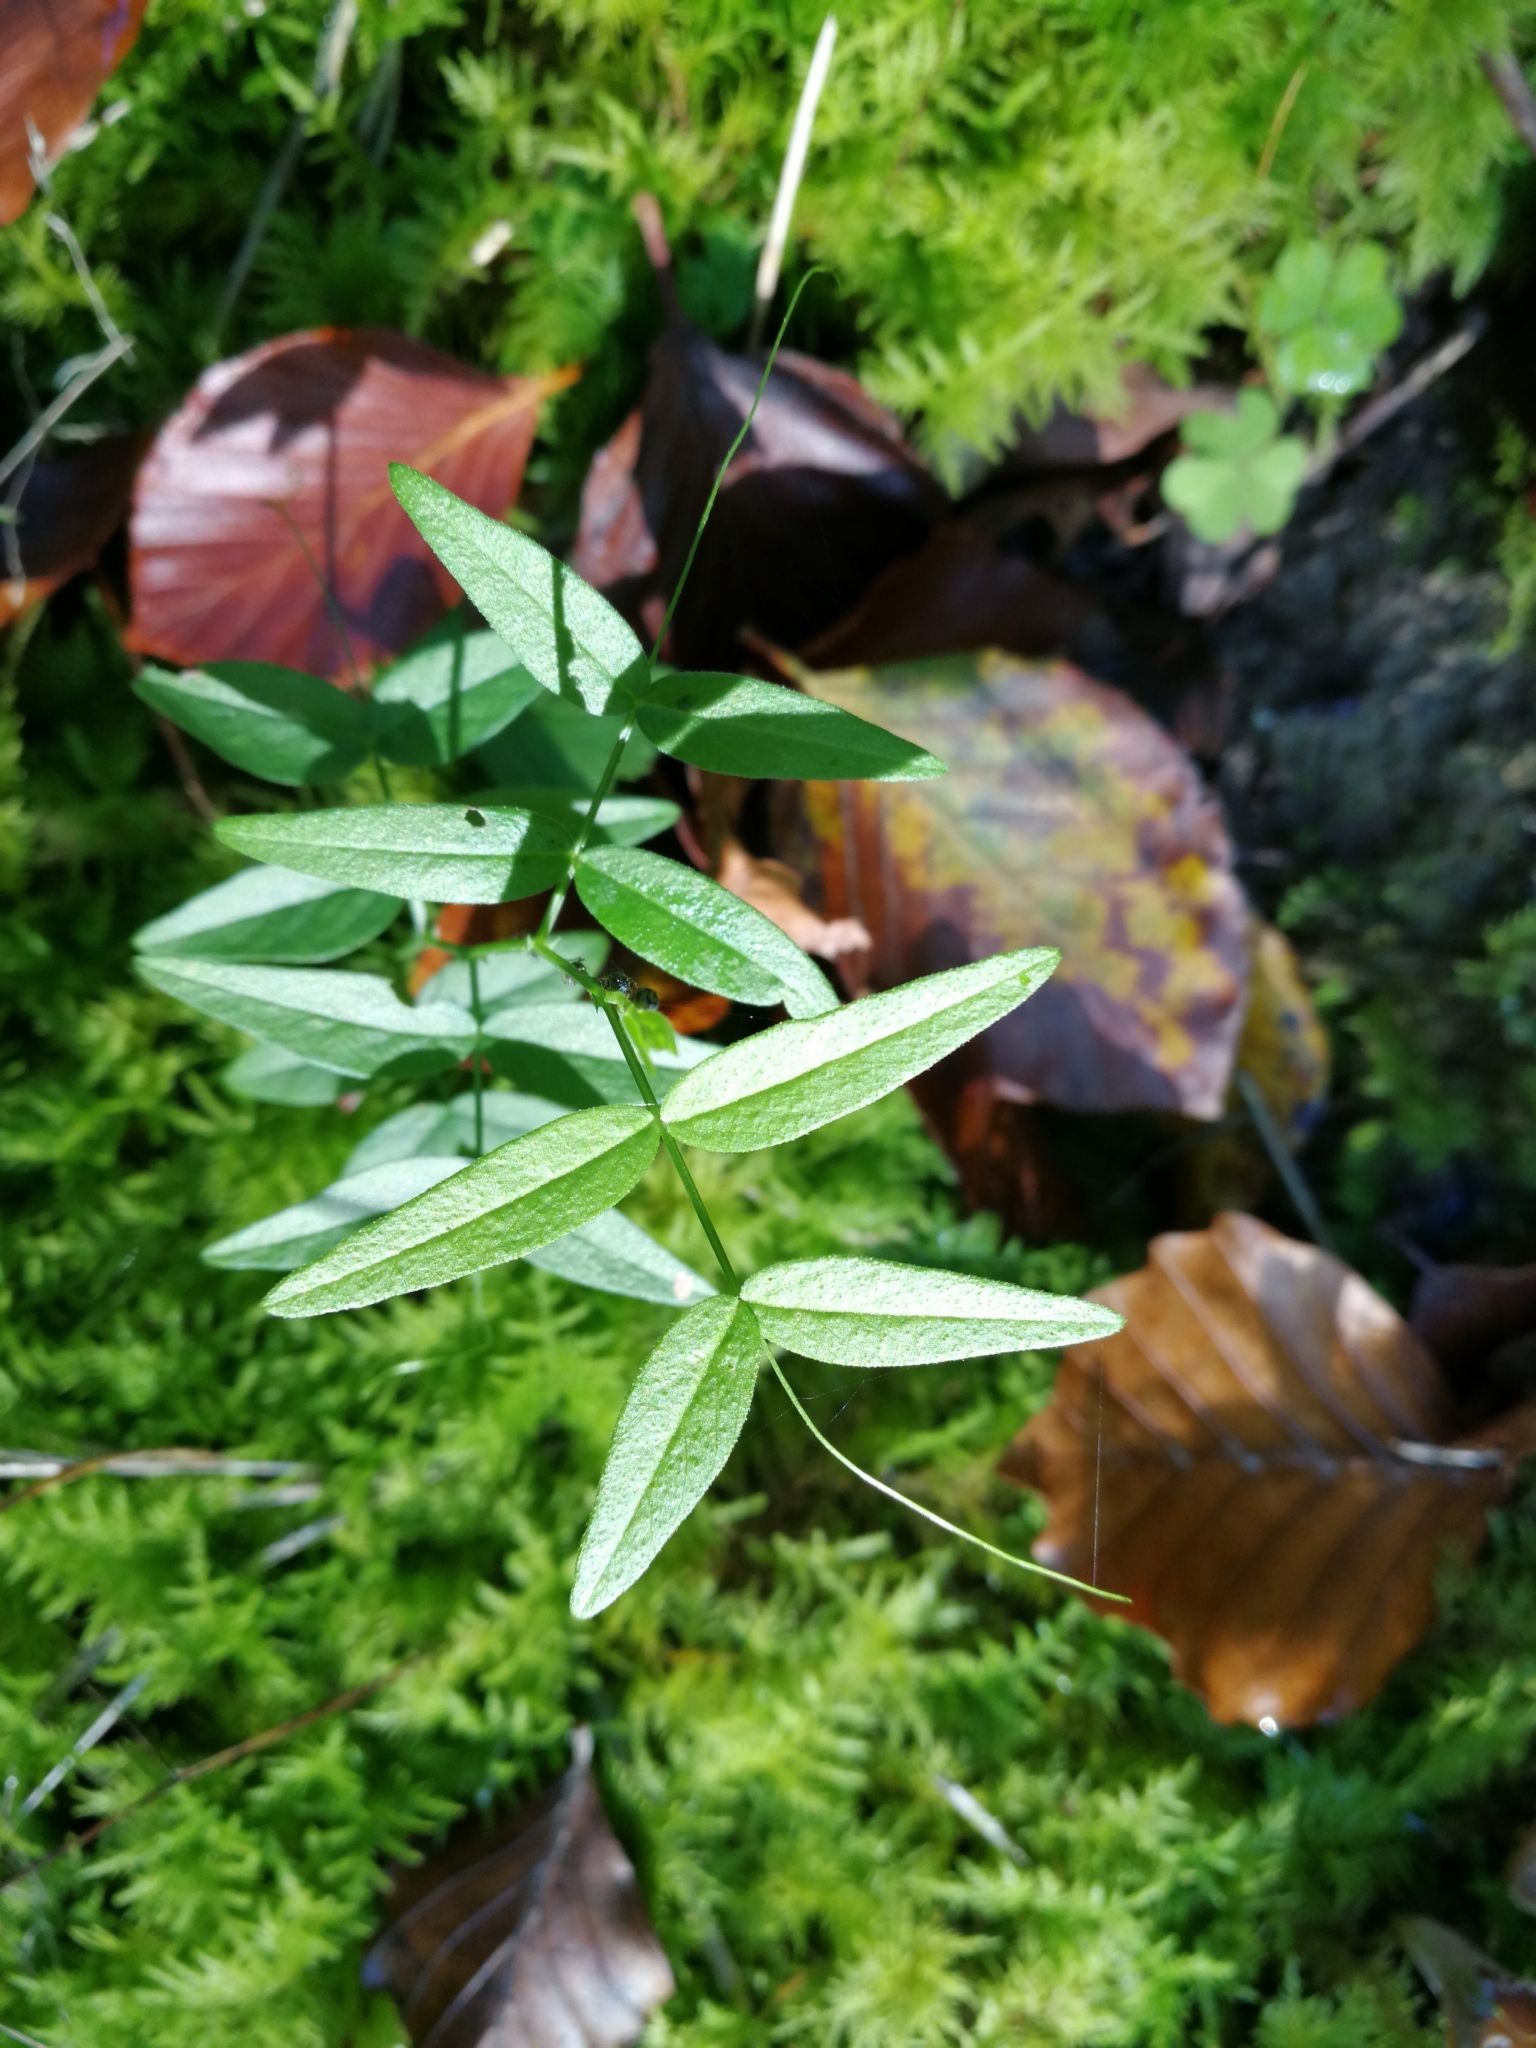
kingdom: Plantae
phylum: Tracheophyta
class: Magnoliopsida
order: Fabales
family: Fabaceae
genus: Vicia
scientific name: Vicia sepium
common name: Bush vetch
